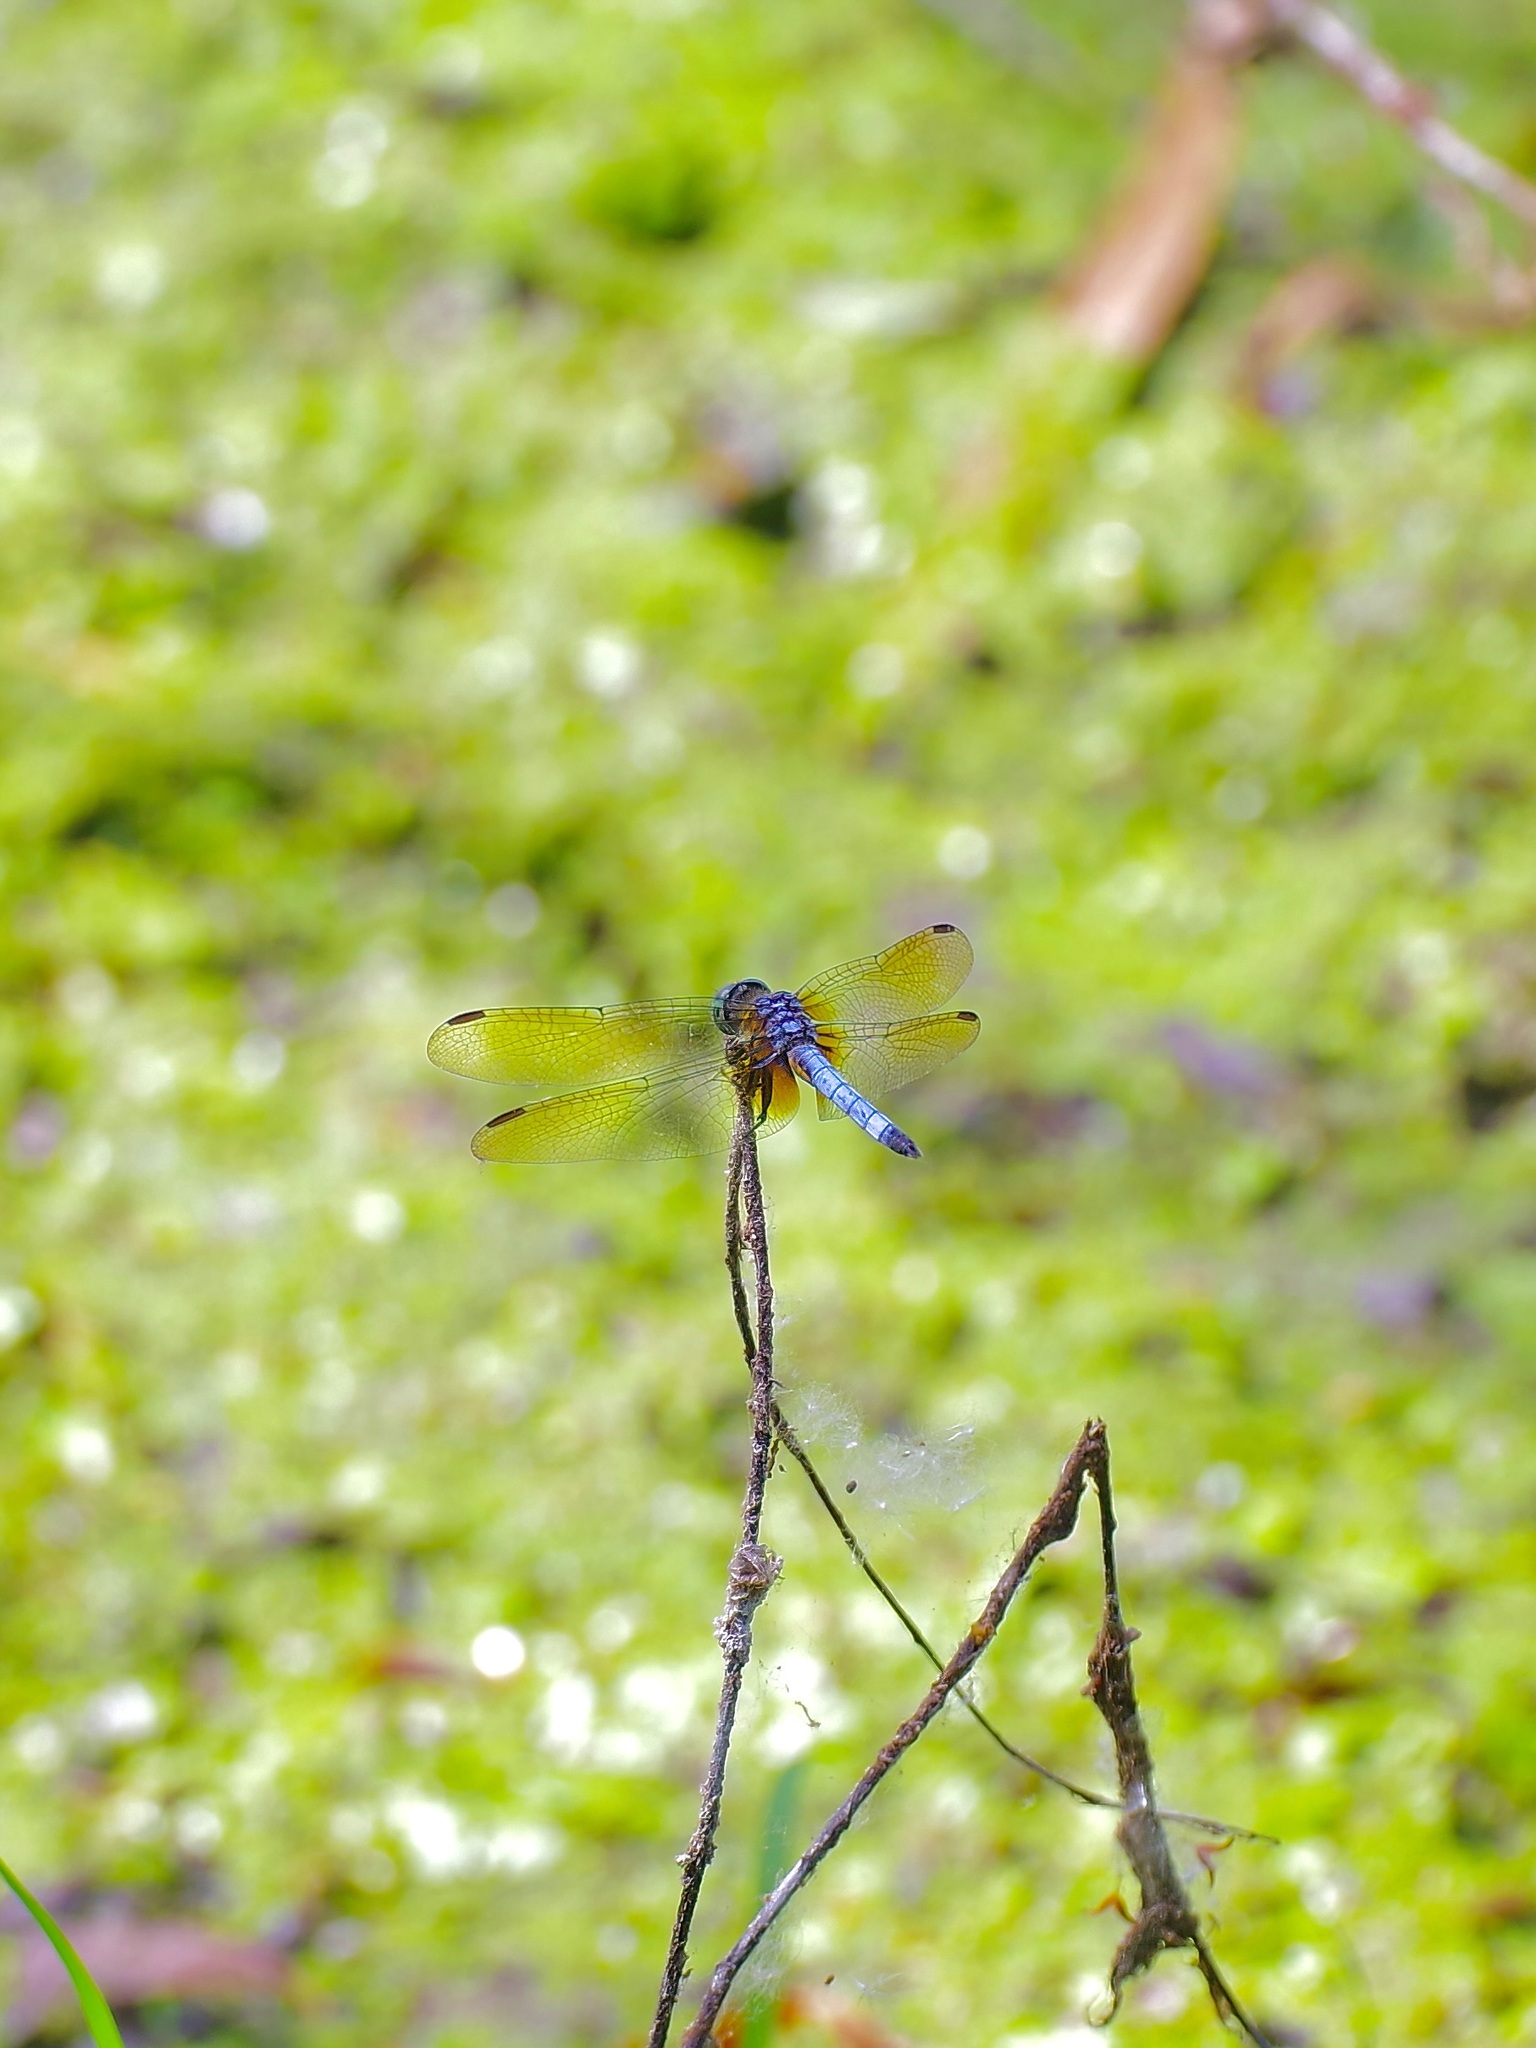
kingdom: Animalia
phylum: Arthropoda
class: Insecta
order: Odonata
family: Libellulidae
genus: Pachydiplax
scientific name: Pachydiplax longipennis
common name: Blue dasher
